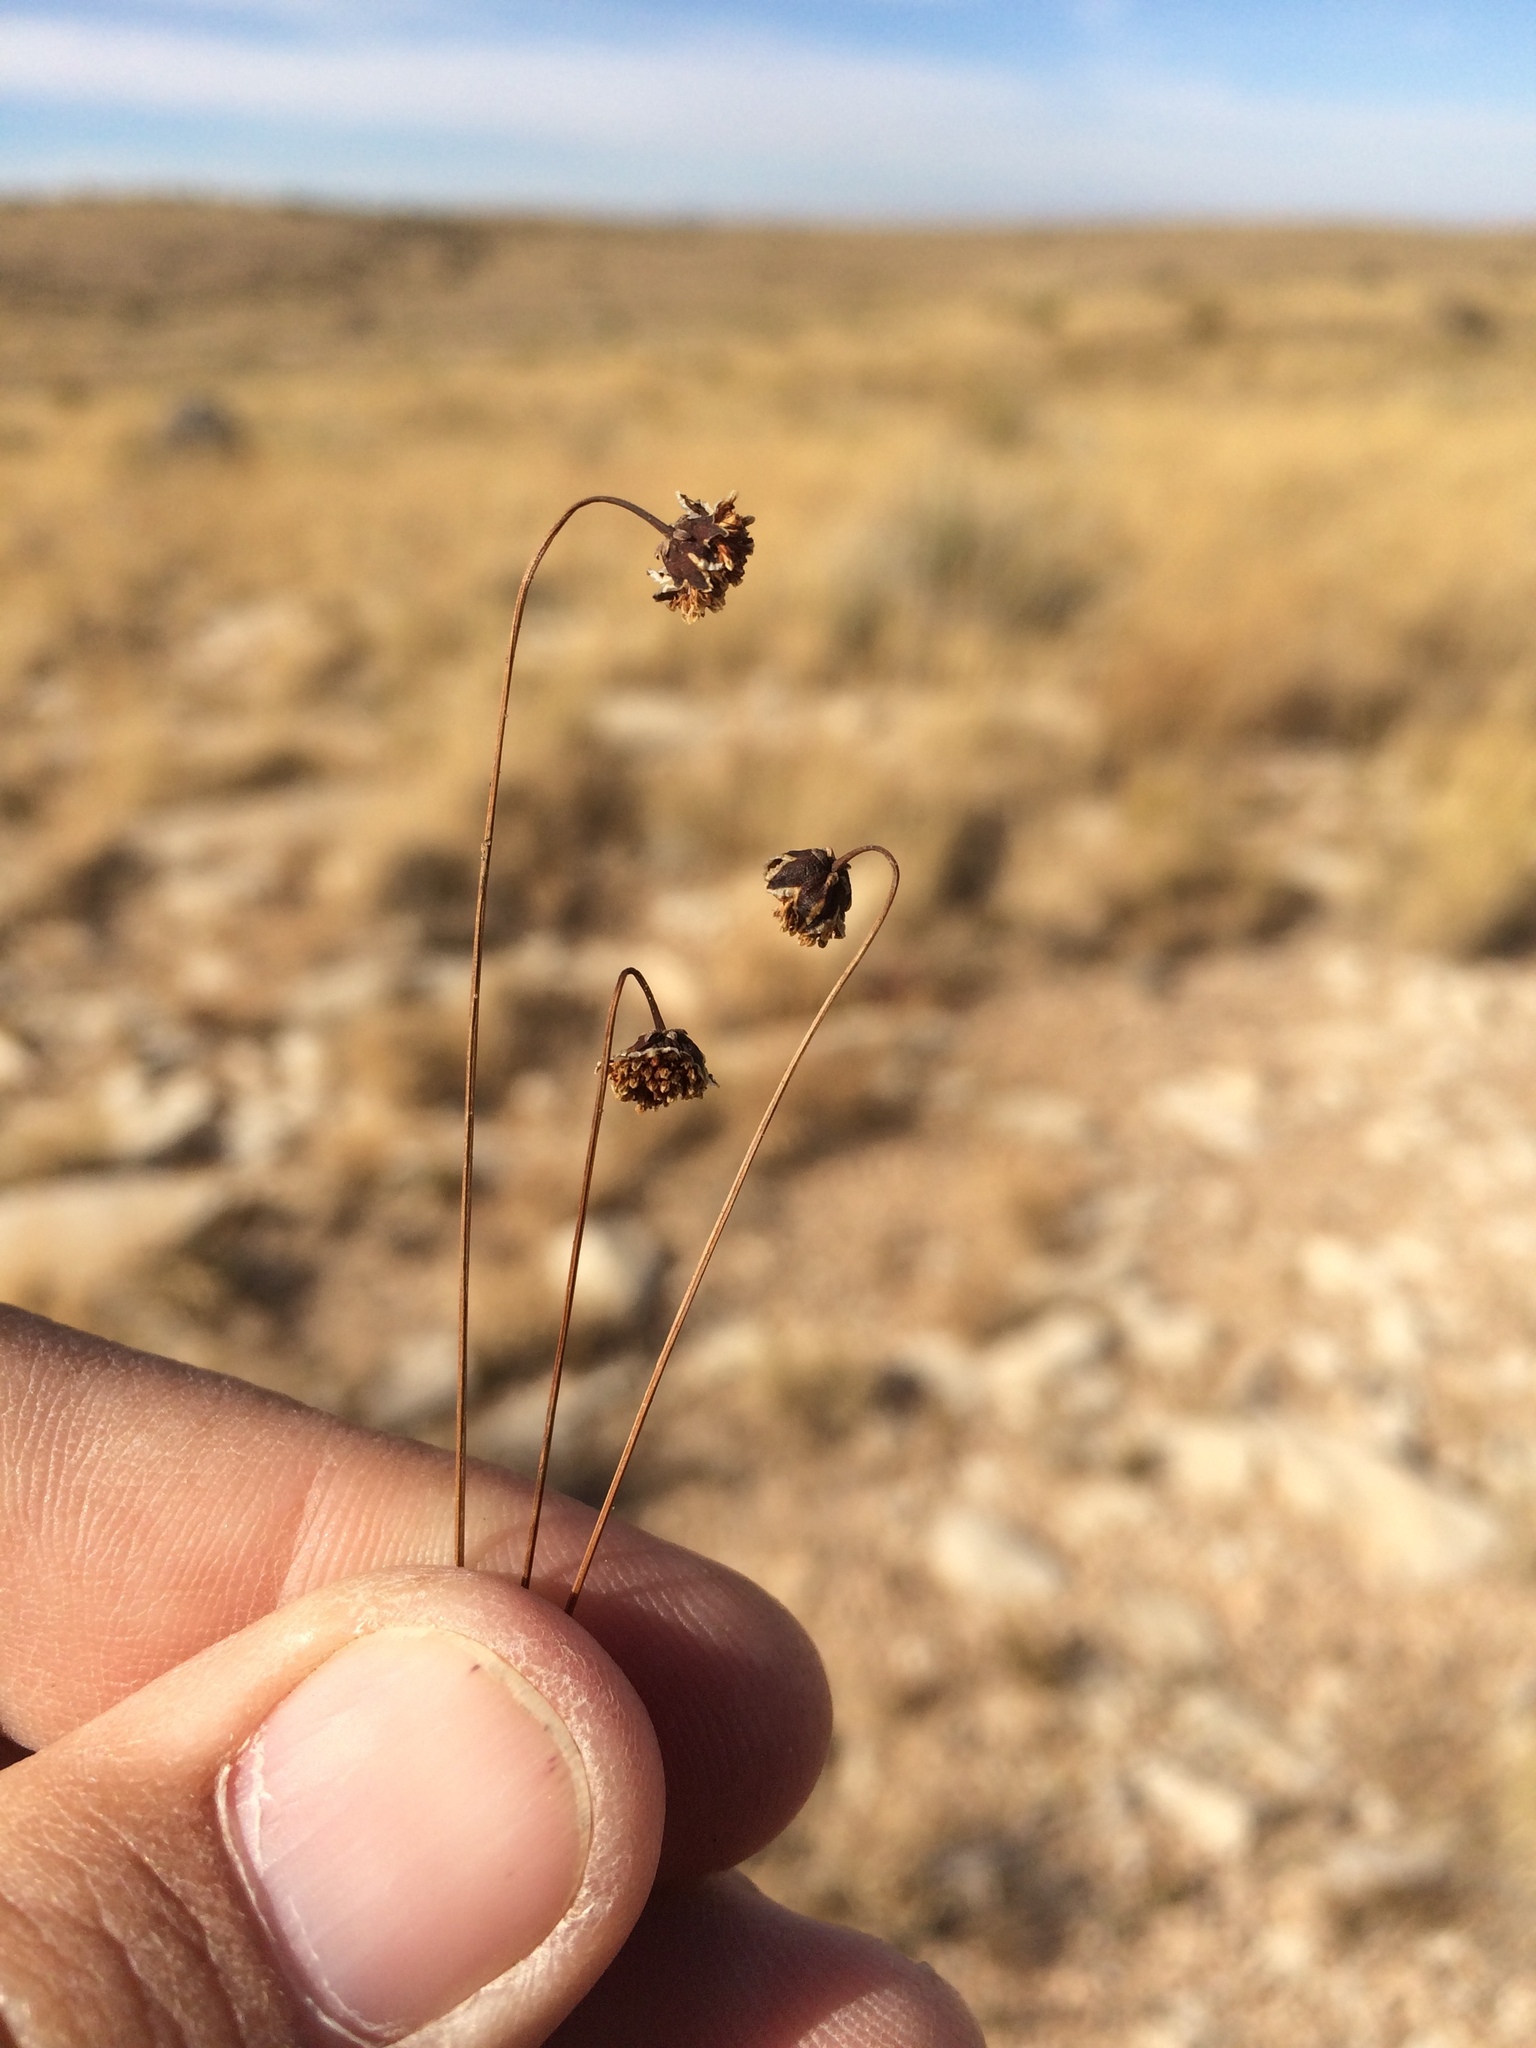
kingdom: Plantae
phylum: Tracheophyta
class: Magnoliopsida
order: Asterales
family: Asteraceae
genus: Thelesperma
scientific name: Thelesperma longipes
